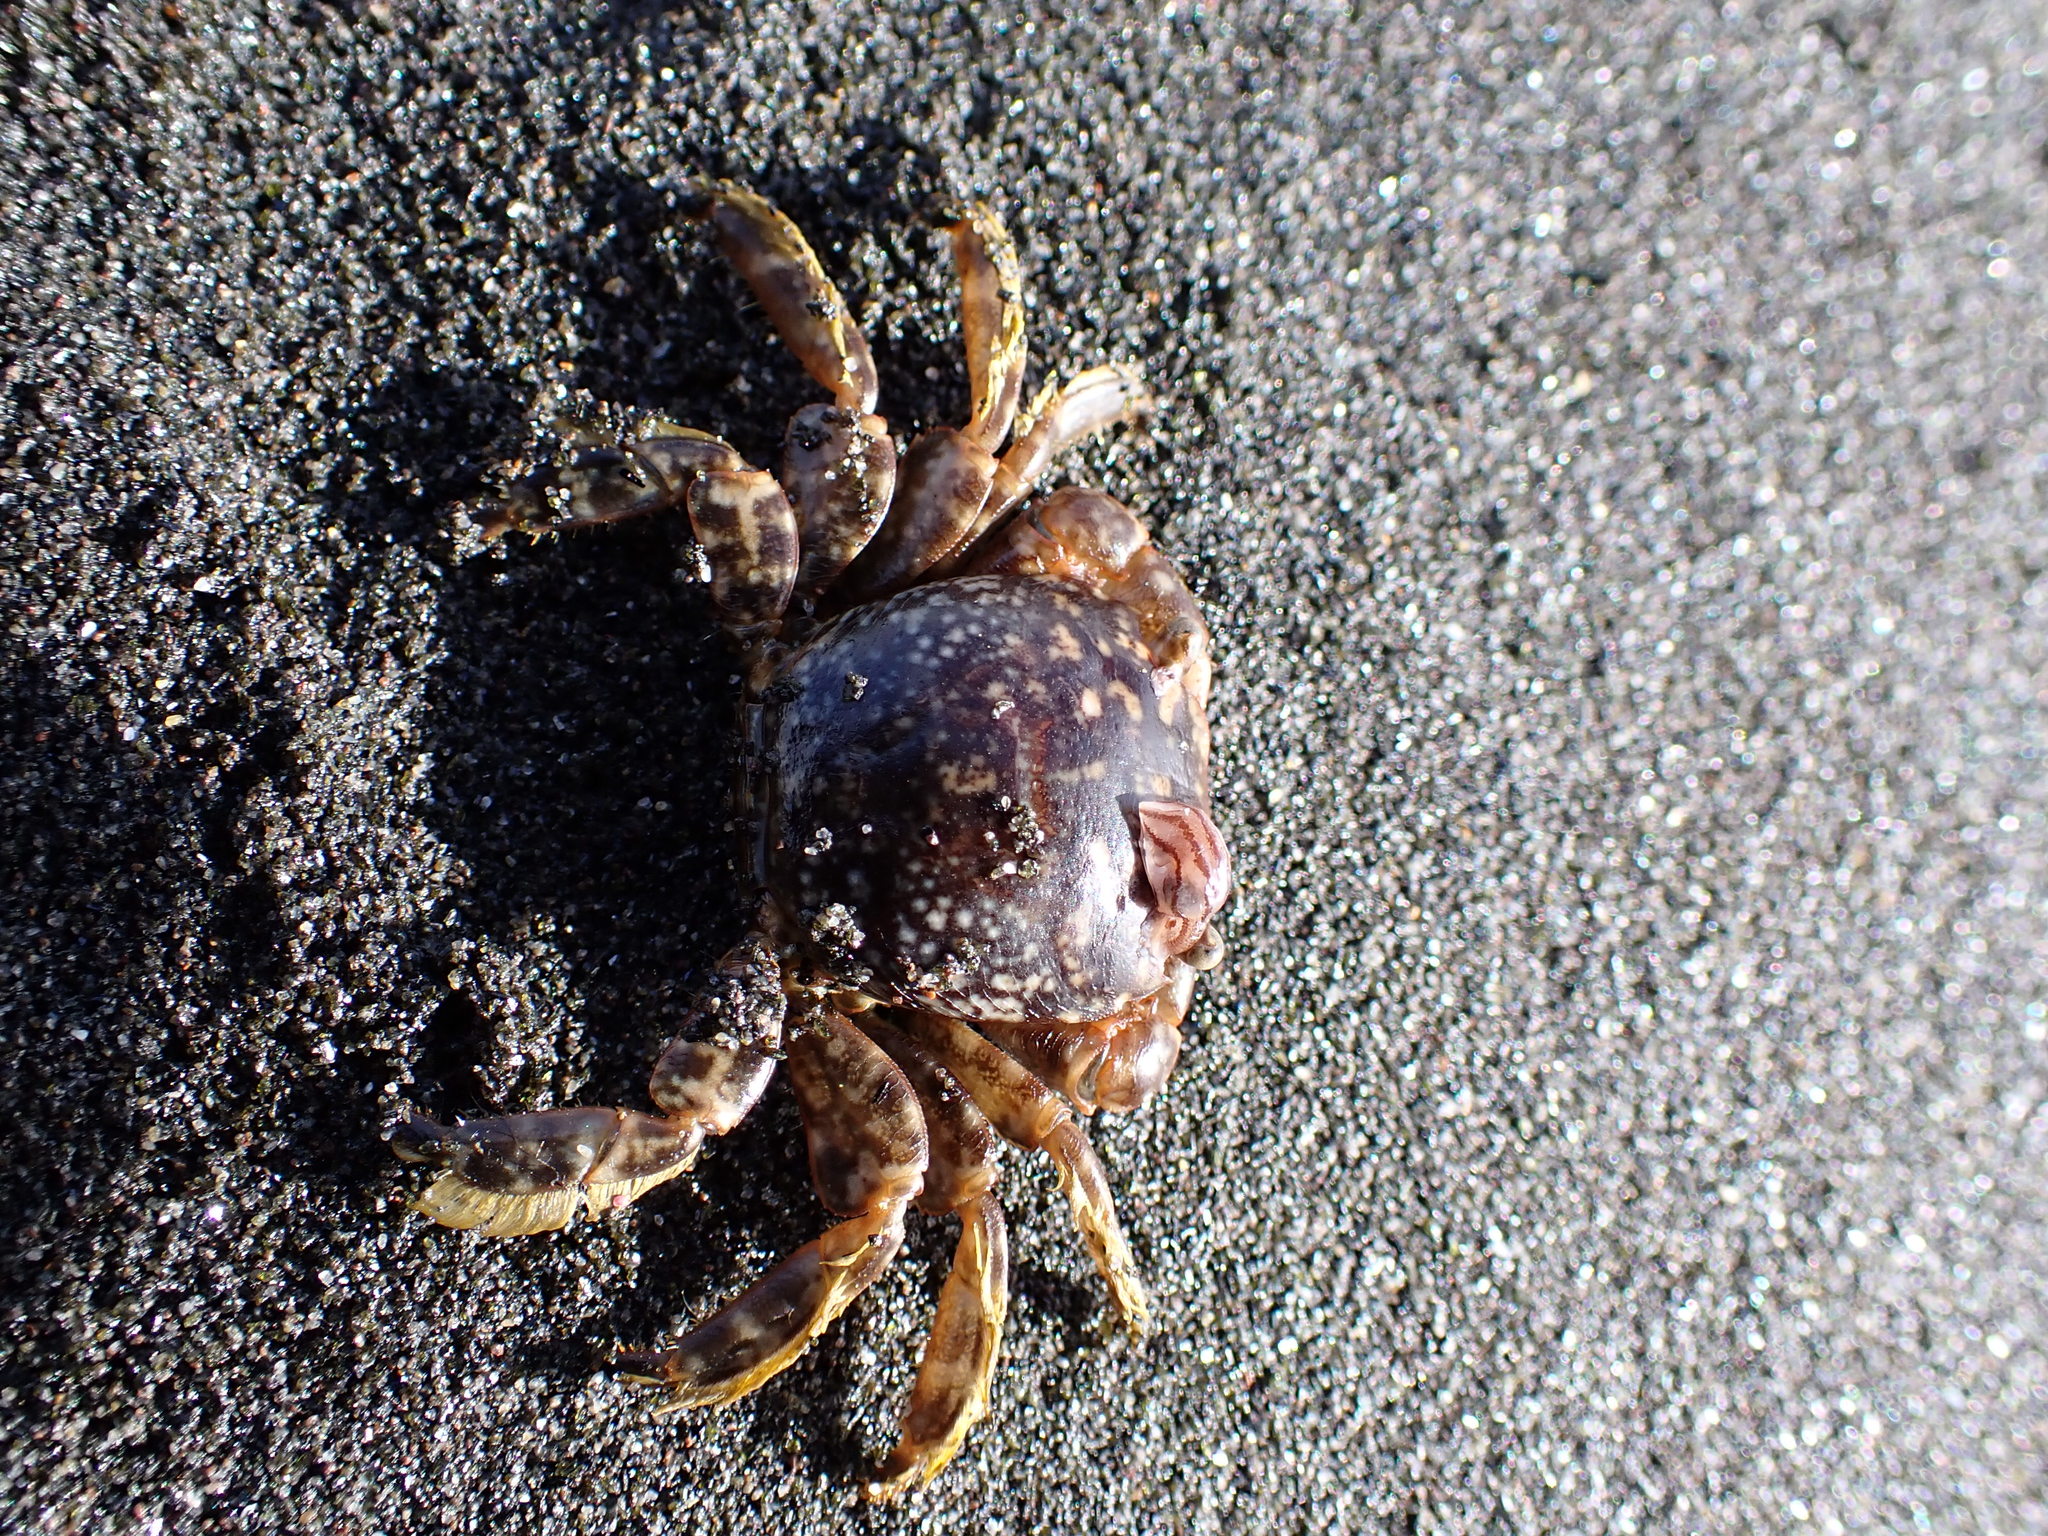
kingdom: Animalia
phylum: Arthropoda
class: Malacostraca
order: Decapoda
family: Grapsidae
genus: Planes
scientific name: Planes minutus
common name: Gulf weed crab
